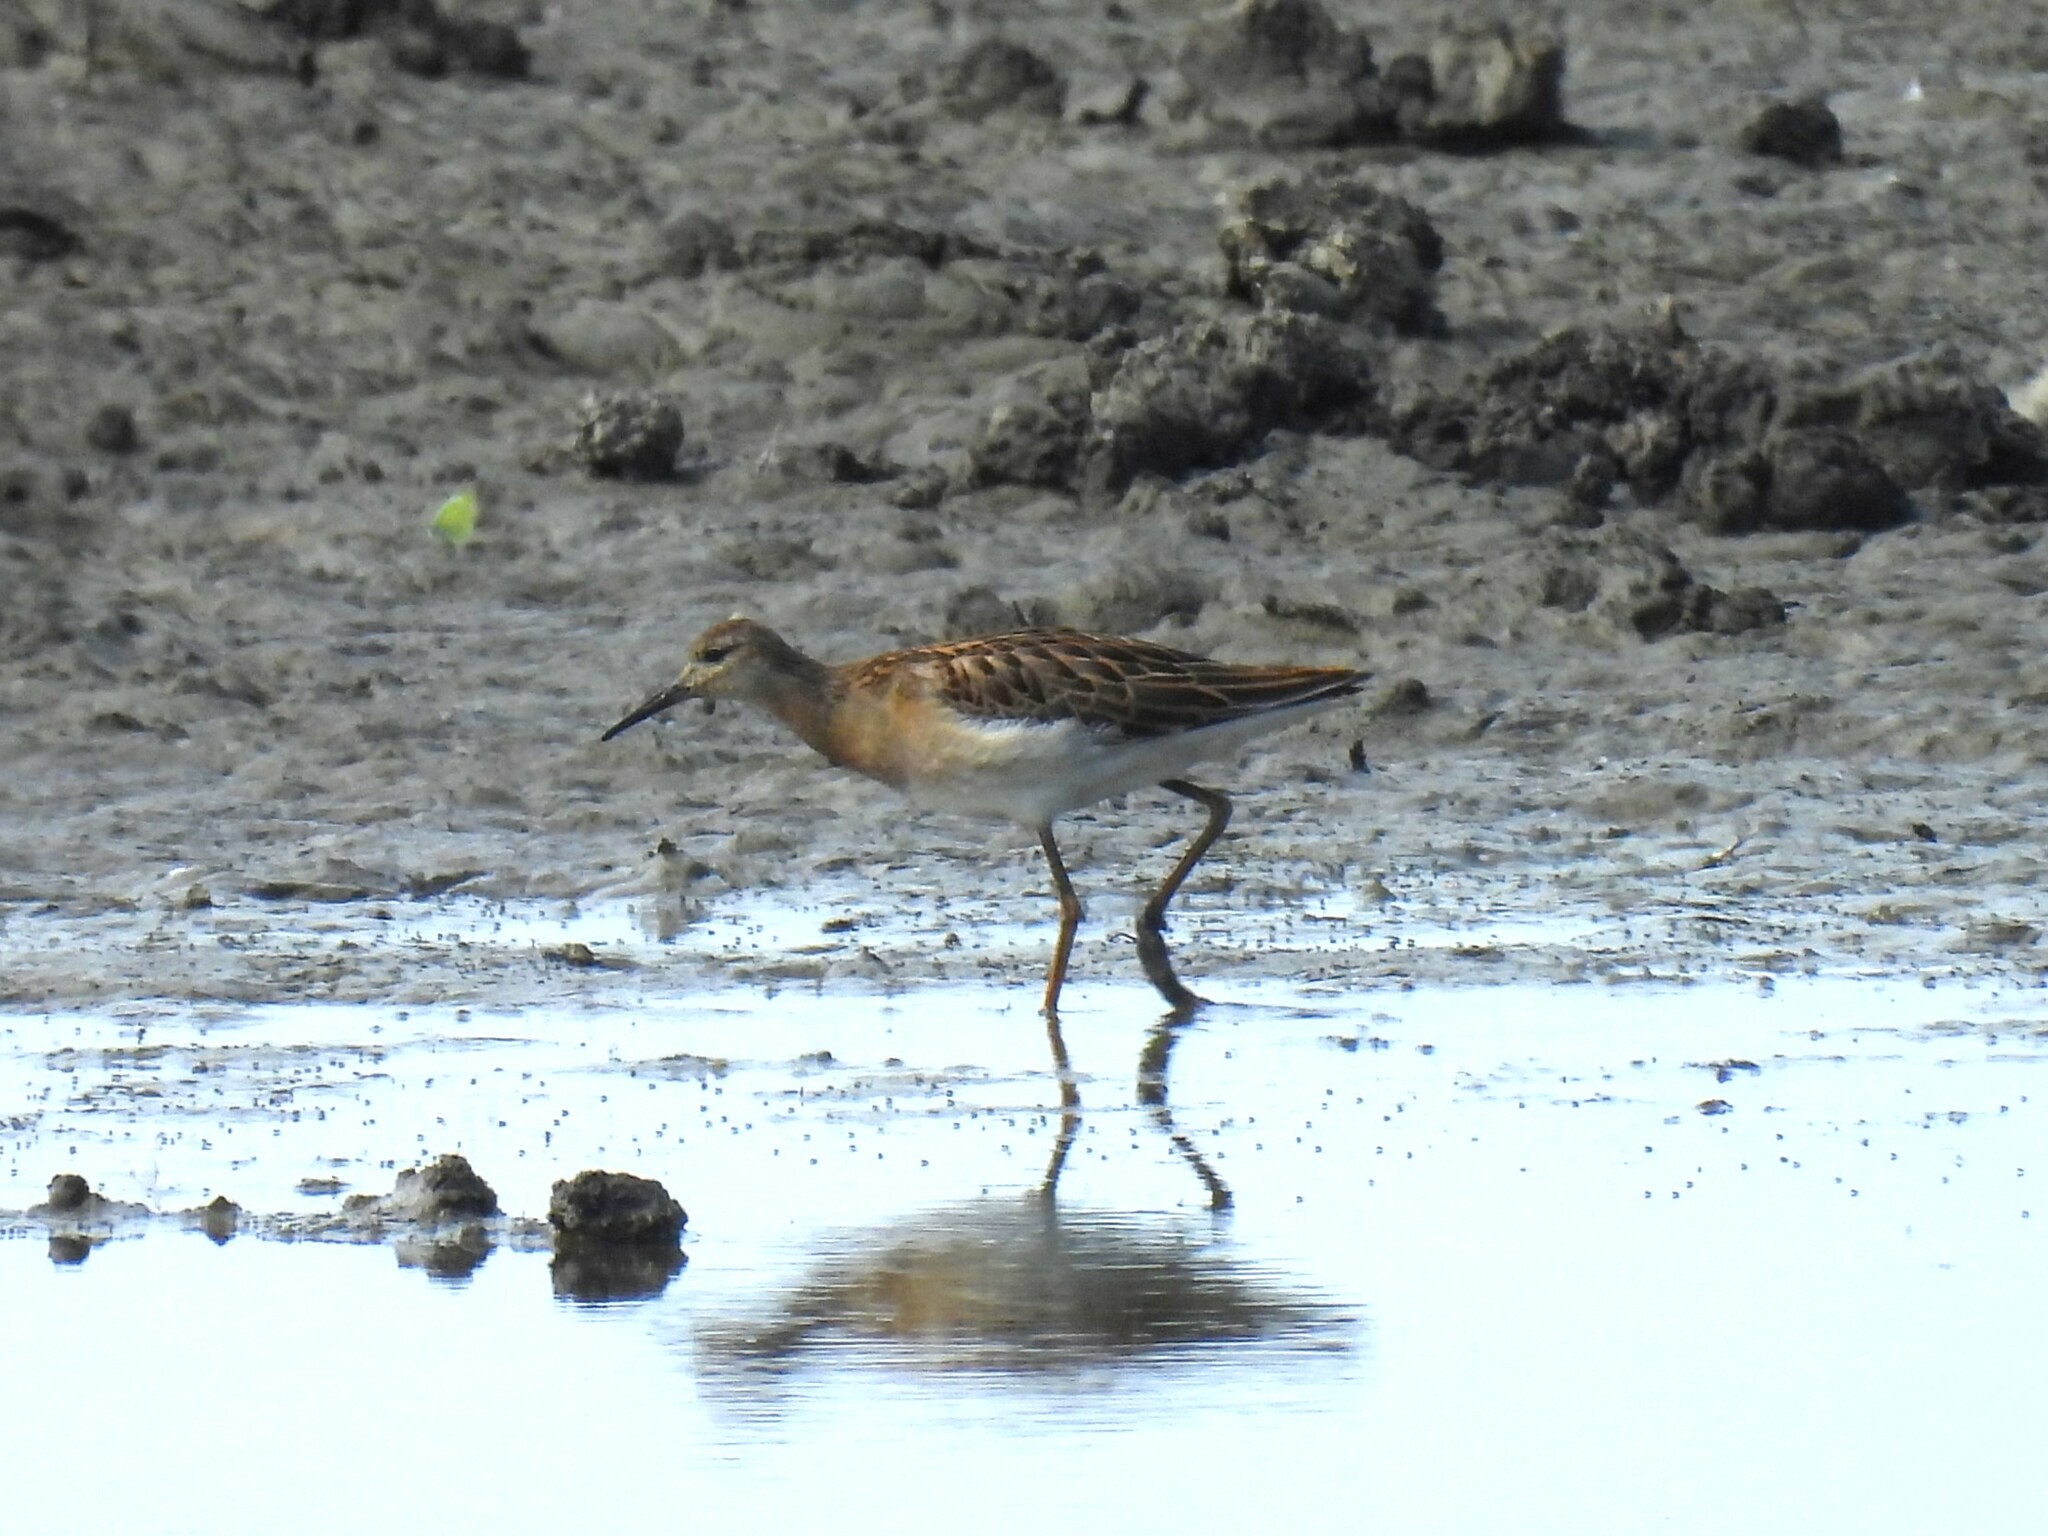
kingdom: Animalia
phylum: Chordata
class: Aves
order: Charadriiformes
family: Scolopacidae
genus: Calidris
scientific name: Calidris pugnax
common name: Ruff
